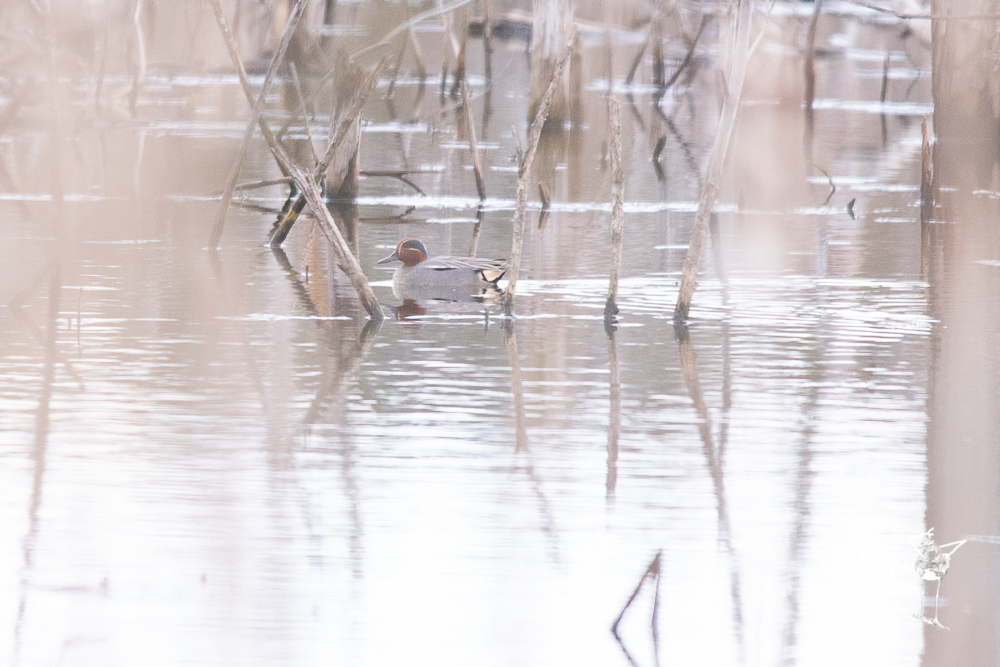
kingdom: Animalia
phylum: Chordata
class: Aves
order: Anseriformes
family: Anatidae
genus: Anas
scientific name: Anas crecca
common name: Eurasian teal
